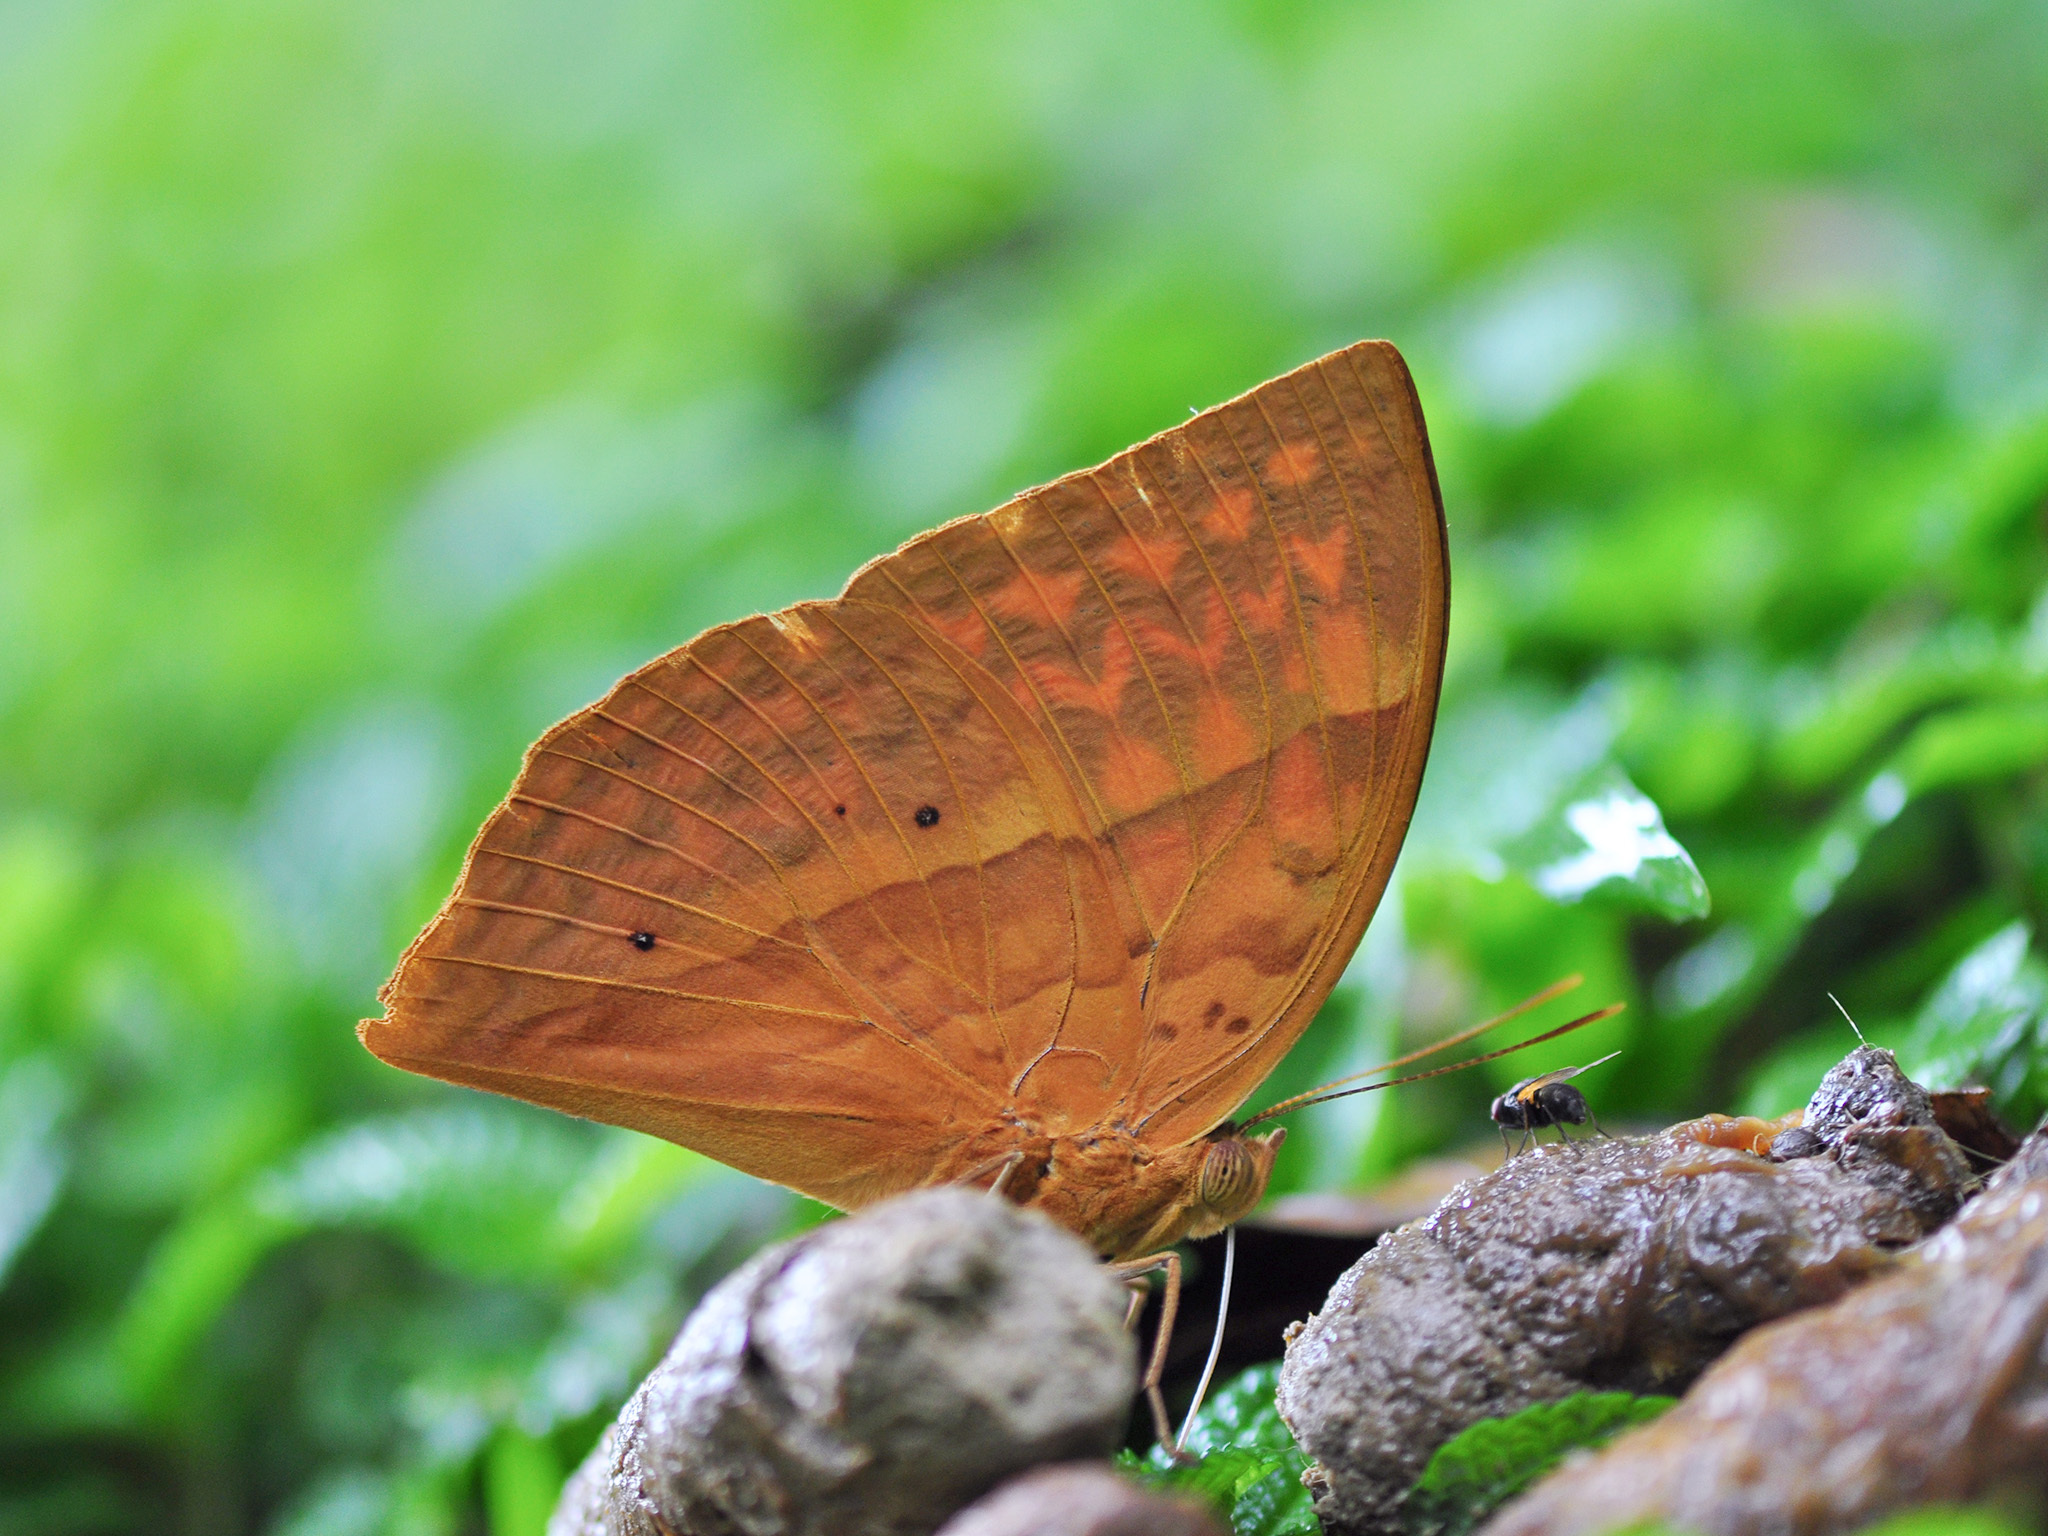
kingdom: Animalia
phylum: Arthropoda
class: Insecta
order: Lepidoptera
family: Nymphalidae
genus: Enispe
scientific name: Enispe
